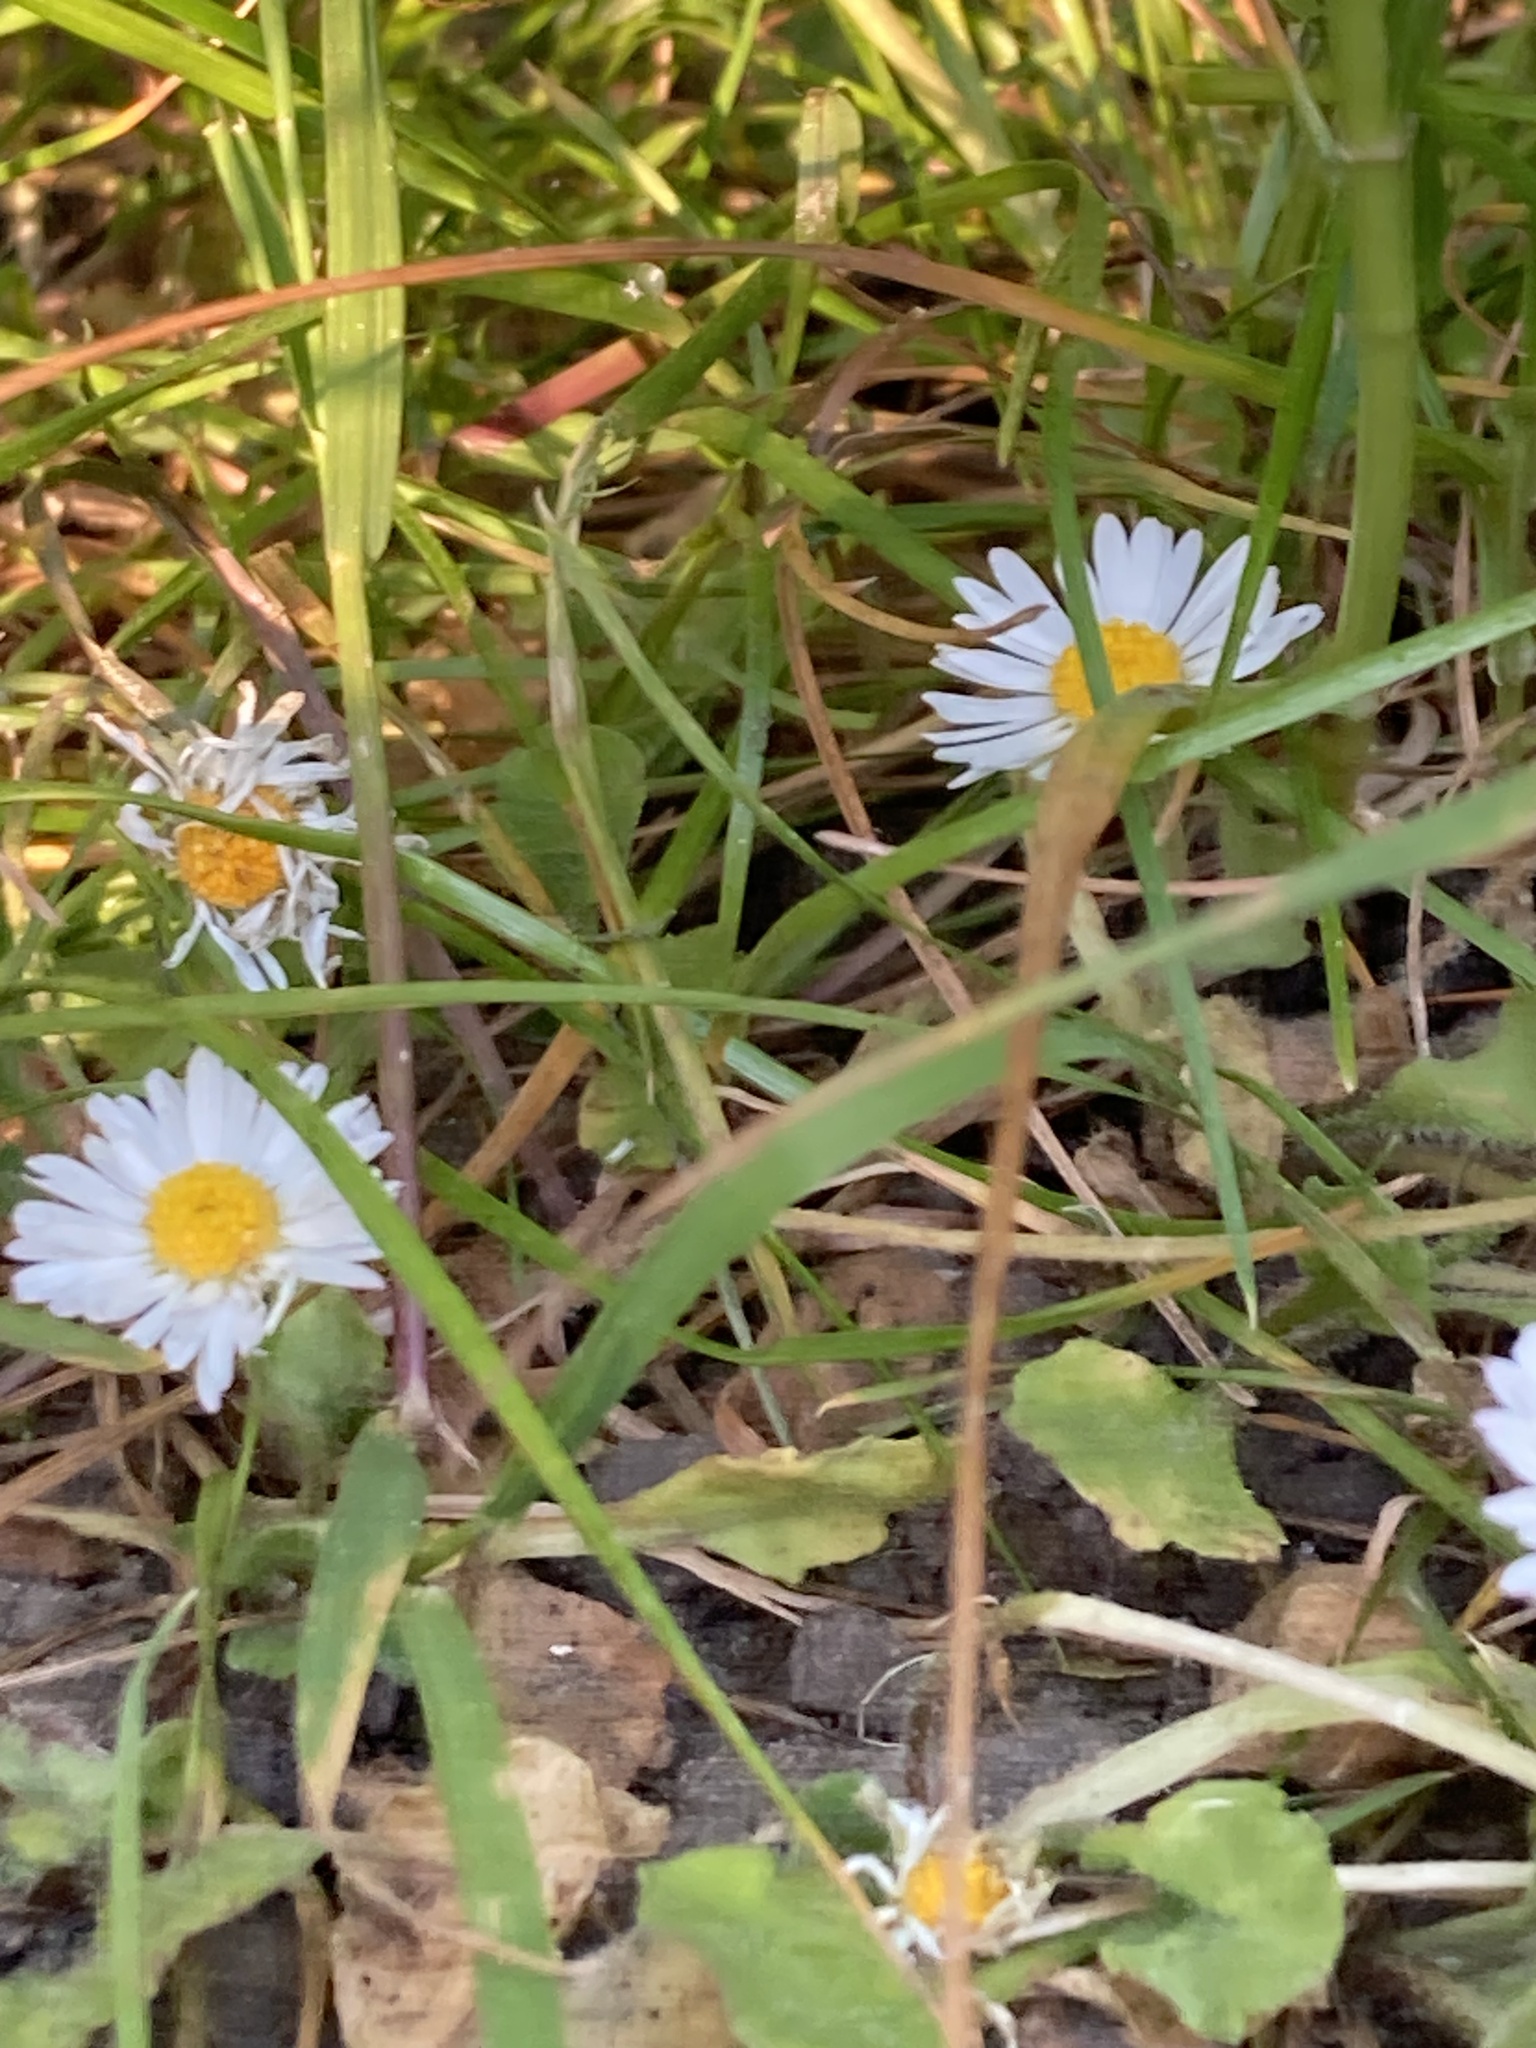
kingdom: Plantae
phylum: Tracheophyta
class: Magnoliopsida
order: Asterales
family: Asteraceae
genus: Bellis
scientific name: Bellis perennis
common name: Lawndaisy
